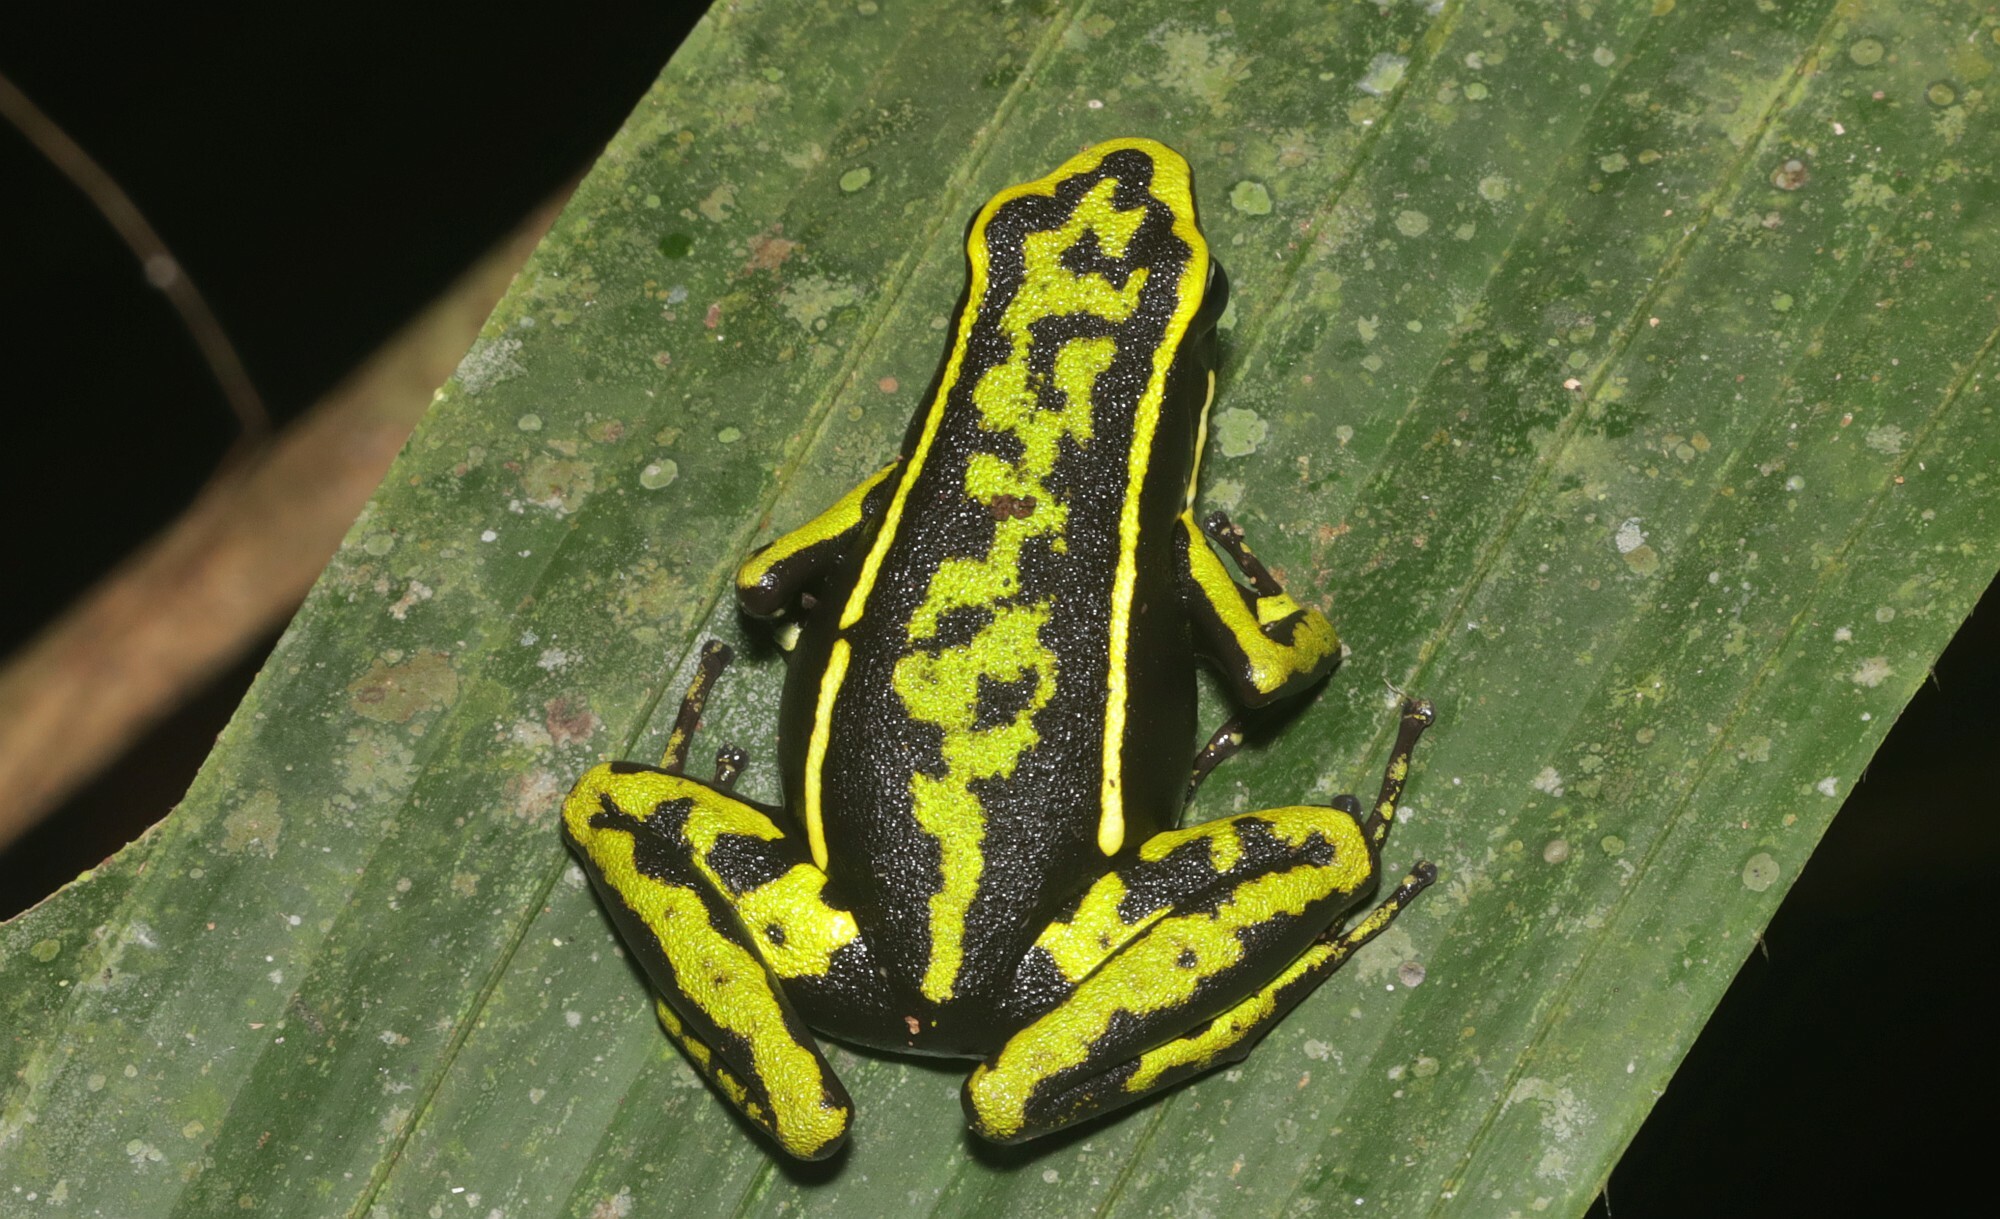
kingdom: Animalia
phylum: Chordata
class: Amphibia
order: Anura
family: Dendrobatidae
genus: Ameerega
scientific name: Ameerega trivittata
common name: Three-striped arrow-poison frog
